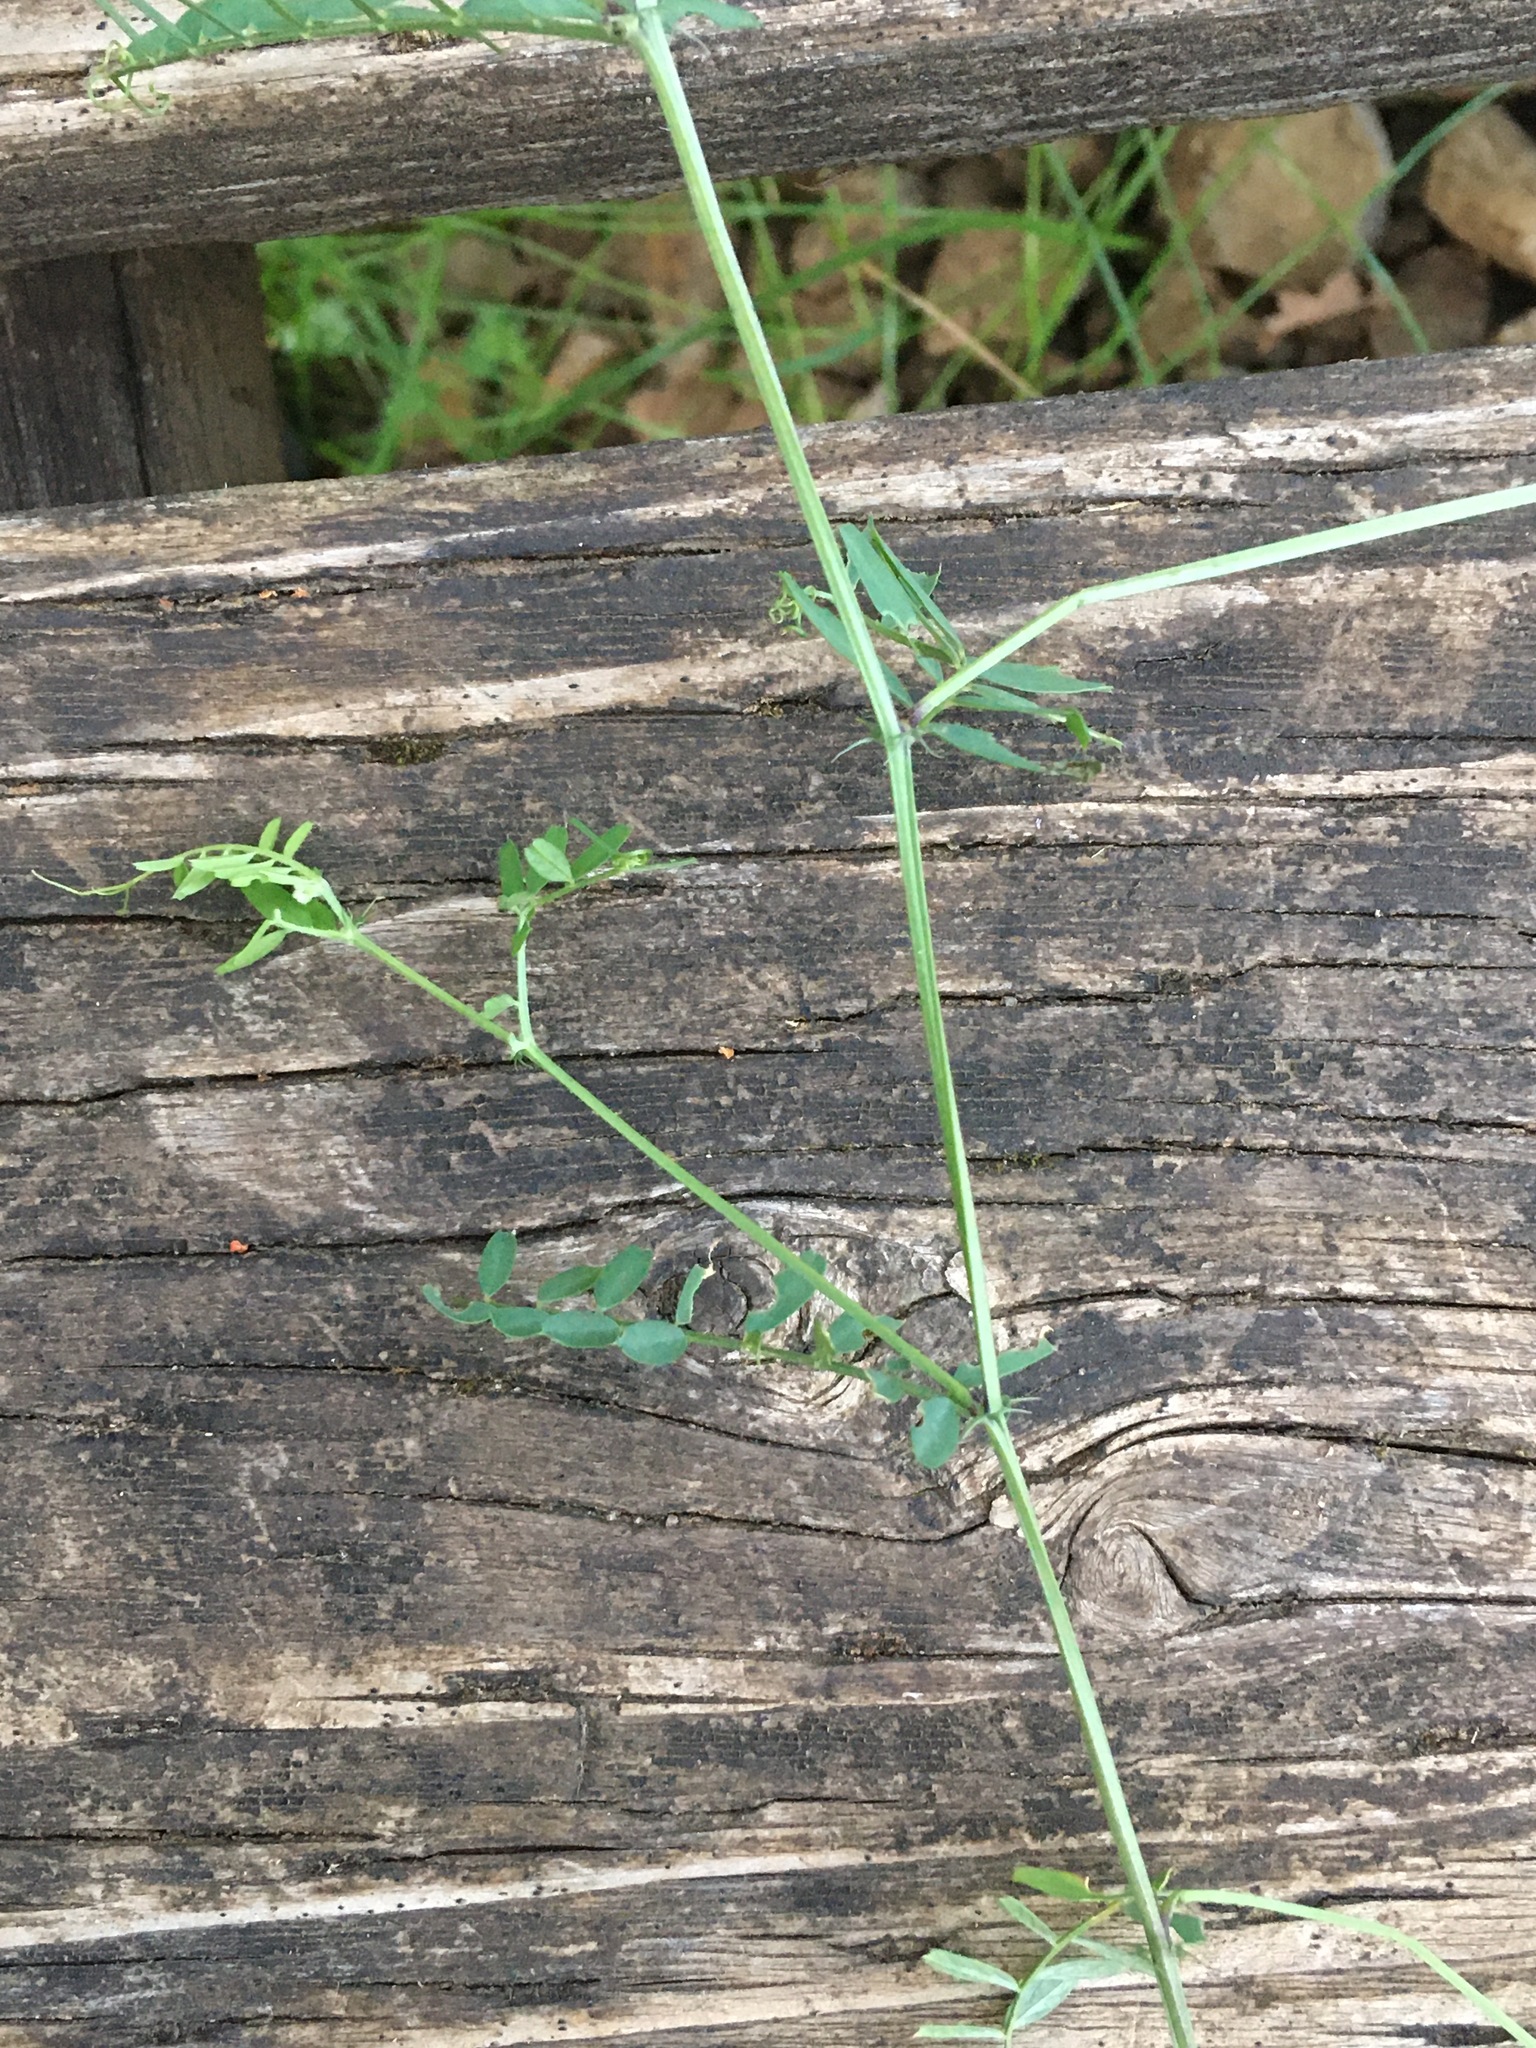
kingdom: Plantae
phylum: Tracheophyta
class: Magnoliopsida
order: Fabales
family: Fabaceae
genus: Vicia
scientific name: Vicia hirsuta
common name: Tiny vetch
